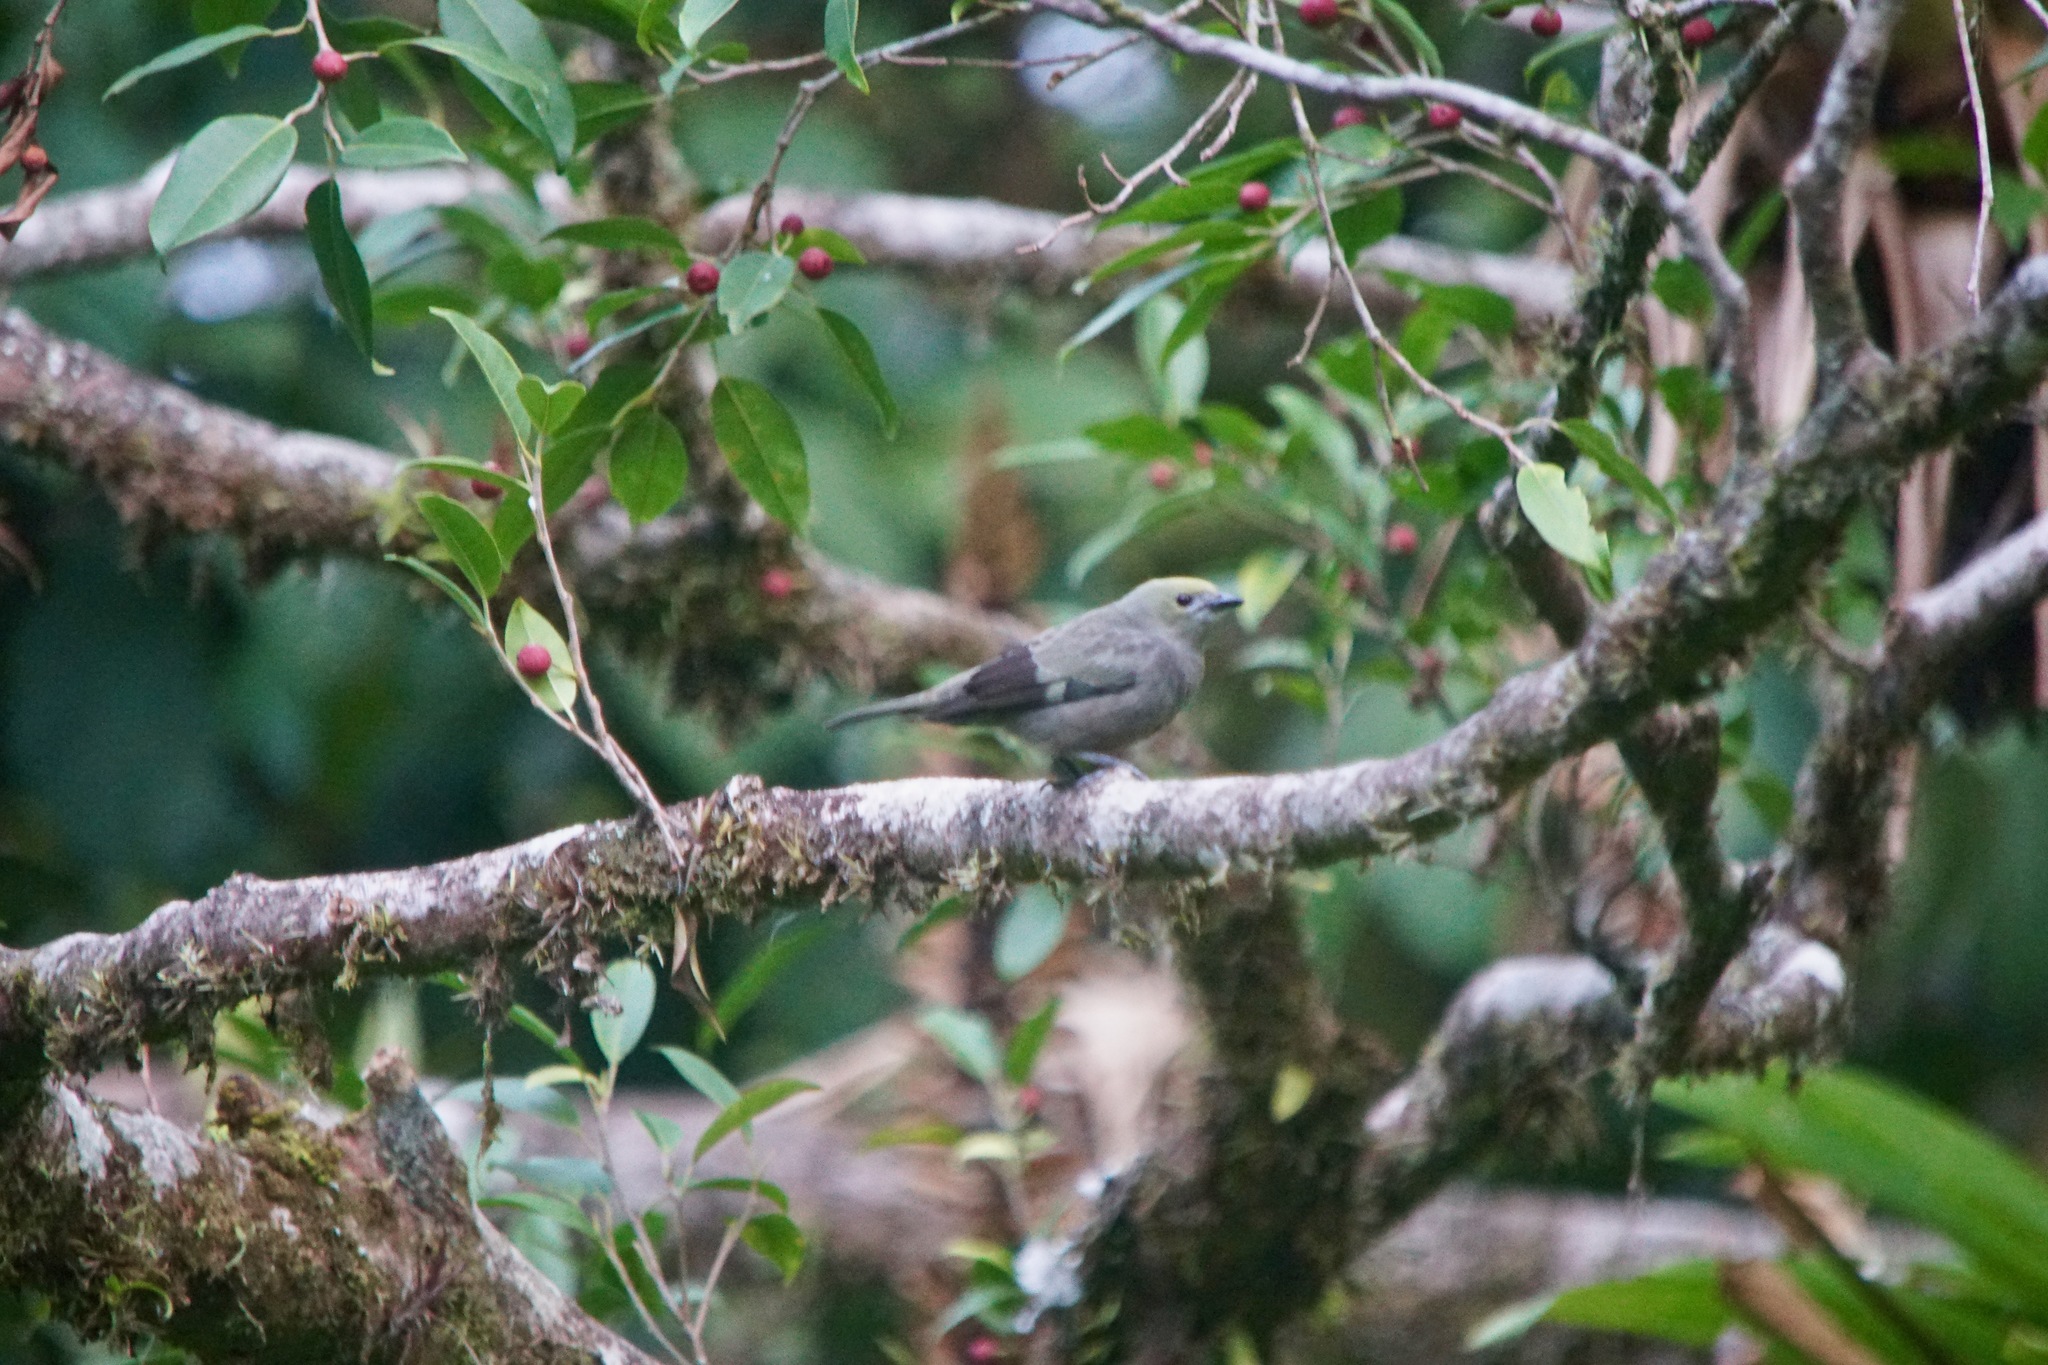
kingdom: Animalia
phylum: Chordata
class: Aves
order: Passeriformes
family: Thraupidae
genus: Thraupis
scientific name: Thraupis palmarum
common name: Palm tanager
